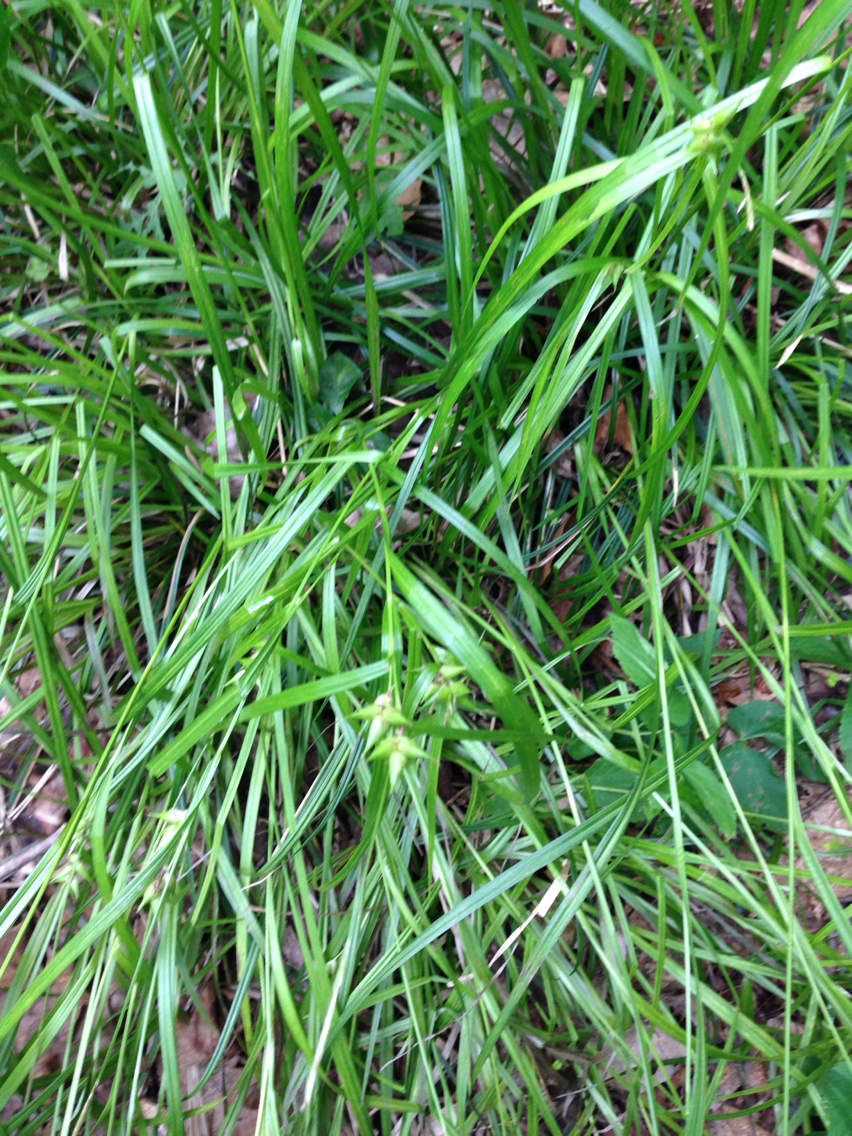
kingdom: Plantae
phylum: Tracheophyta
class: Liliopsida
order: Poales
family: Cyperaceae
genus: Carex
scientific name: Carex intumescens
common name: Greater bladder sedge
